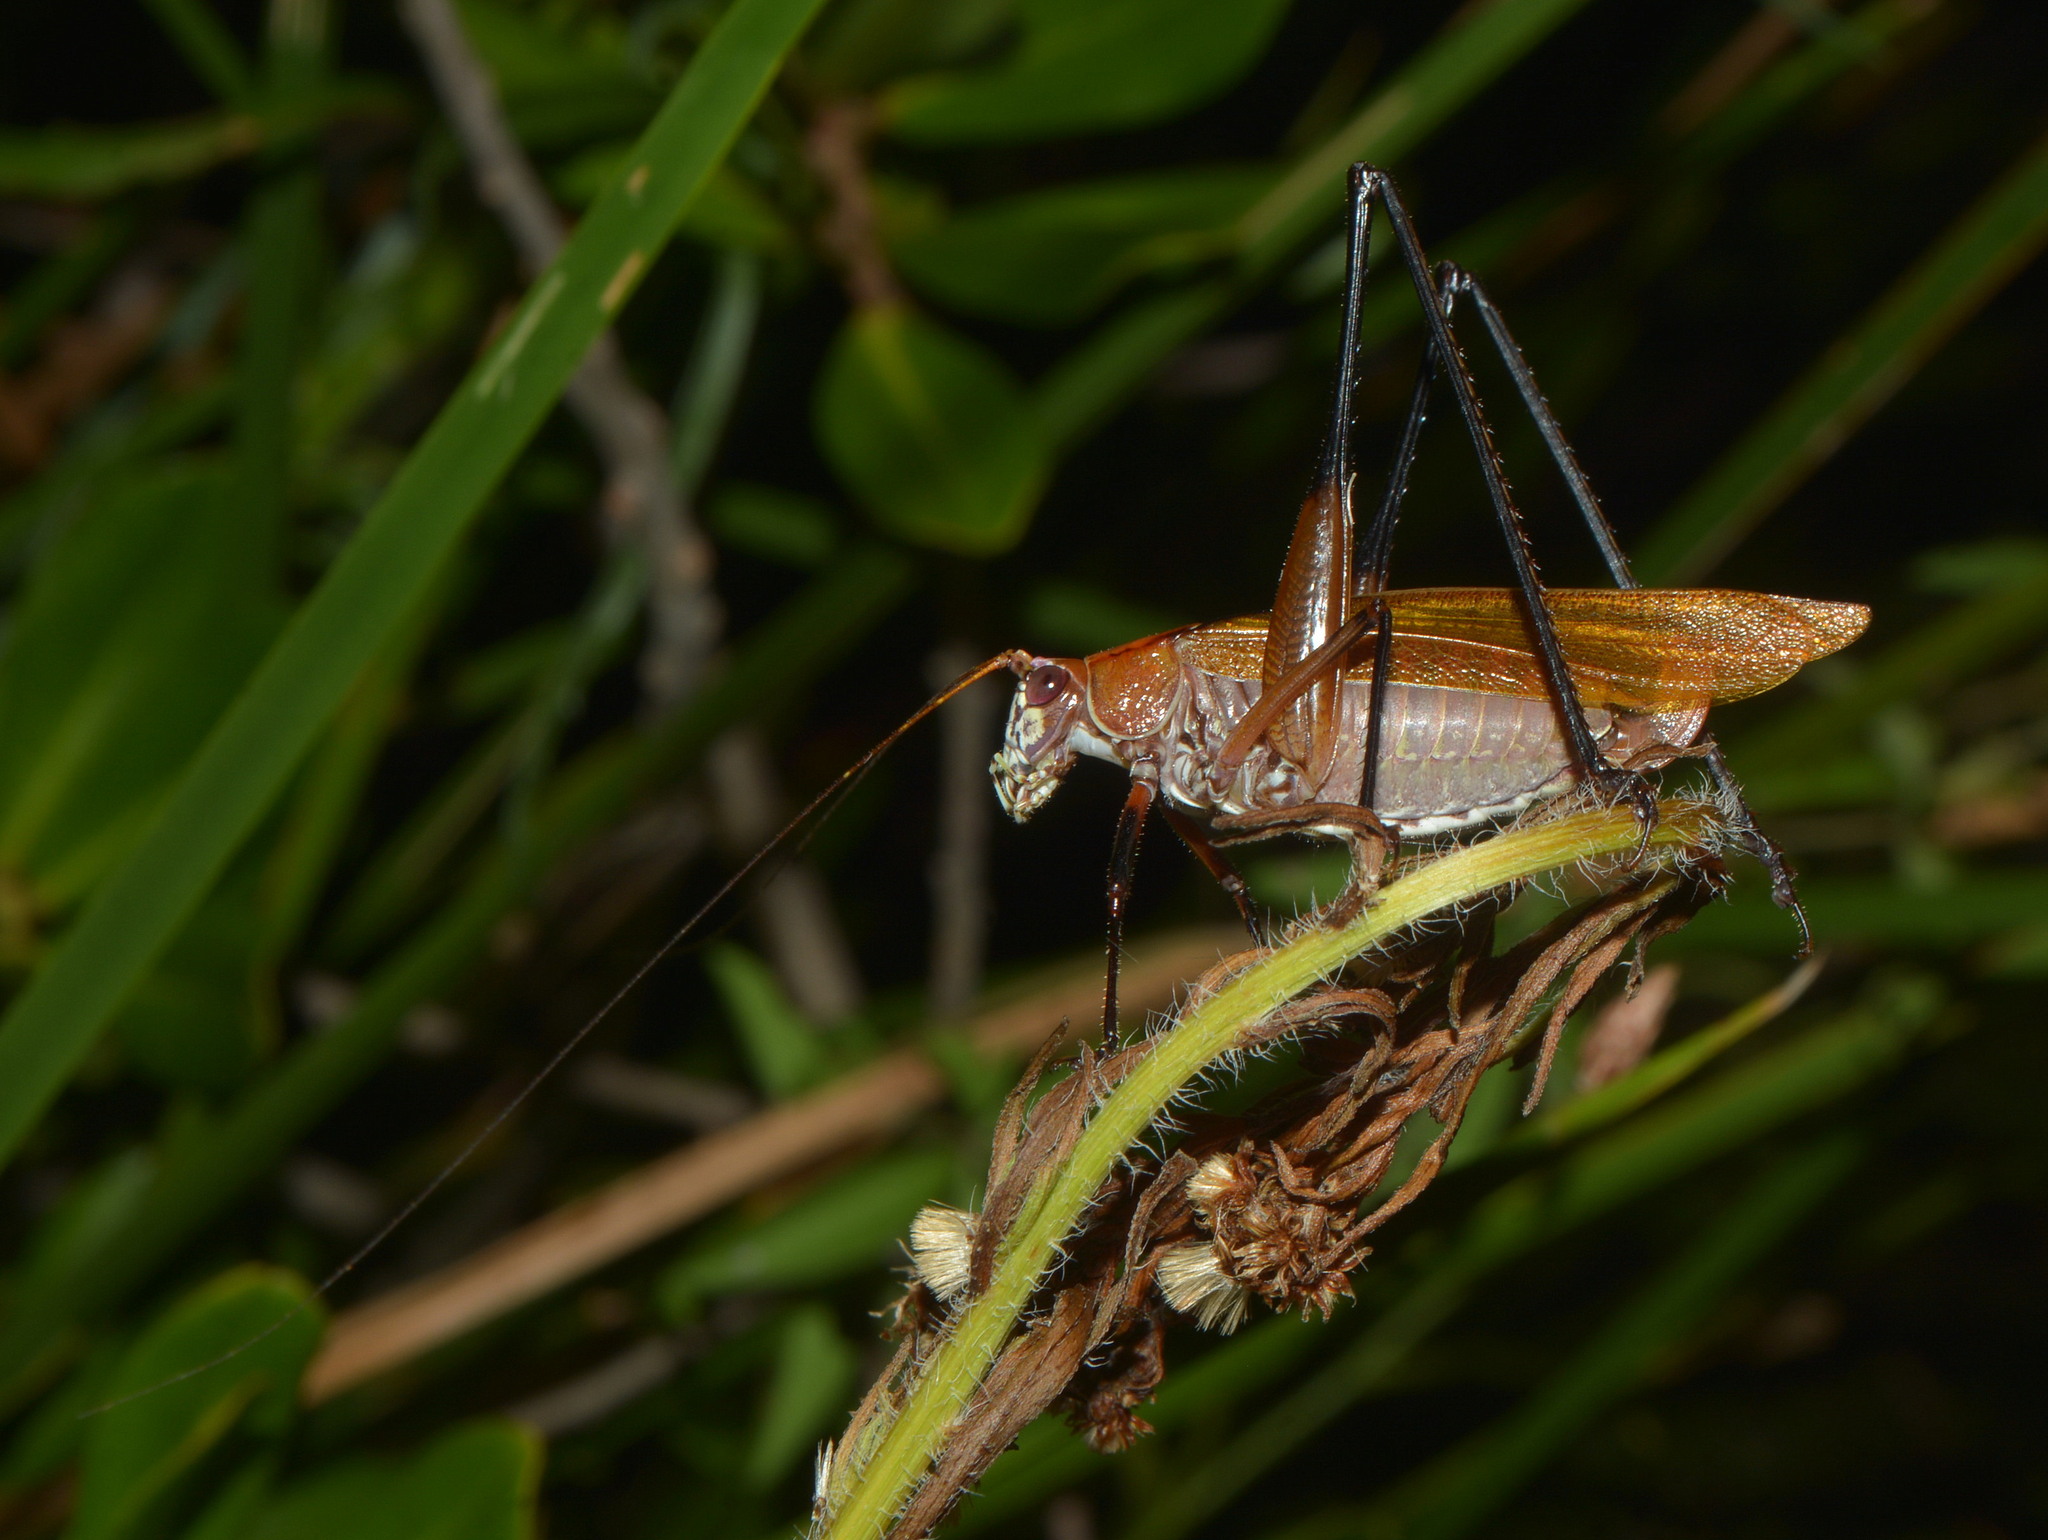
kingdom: Animalia
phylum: Arthropoda
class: Insecta
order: Orthoptera
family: Tettigoniidae
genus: Theudoria
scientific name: Theudoria melanocnemis
